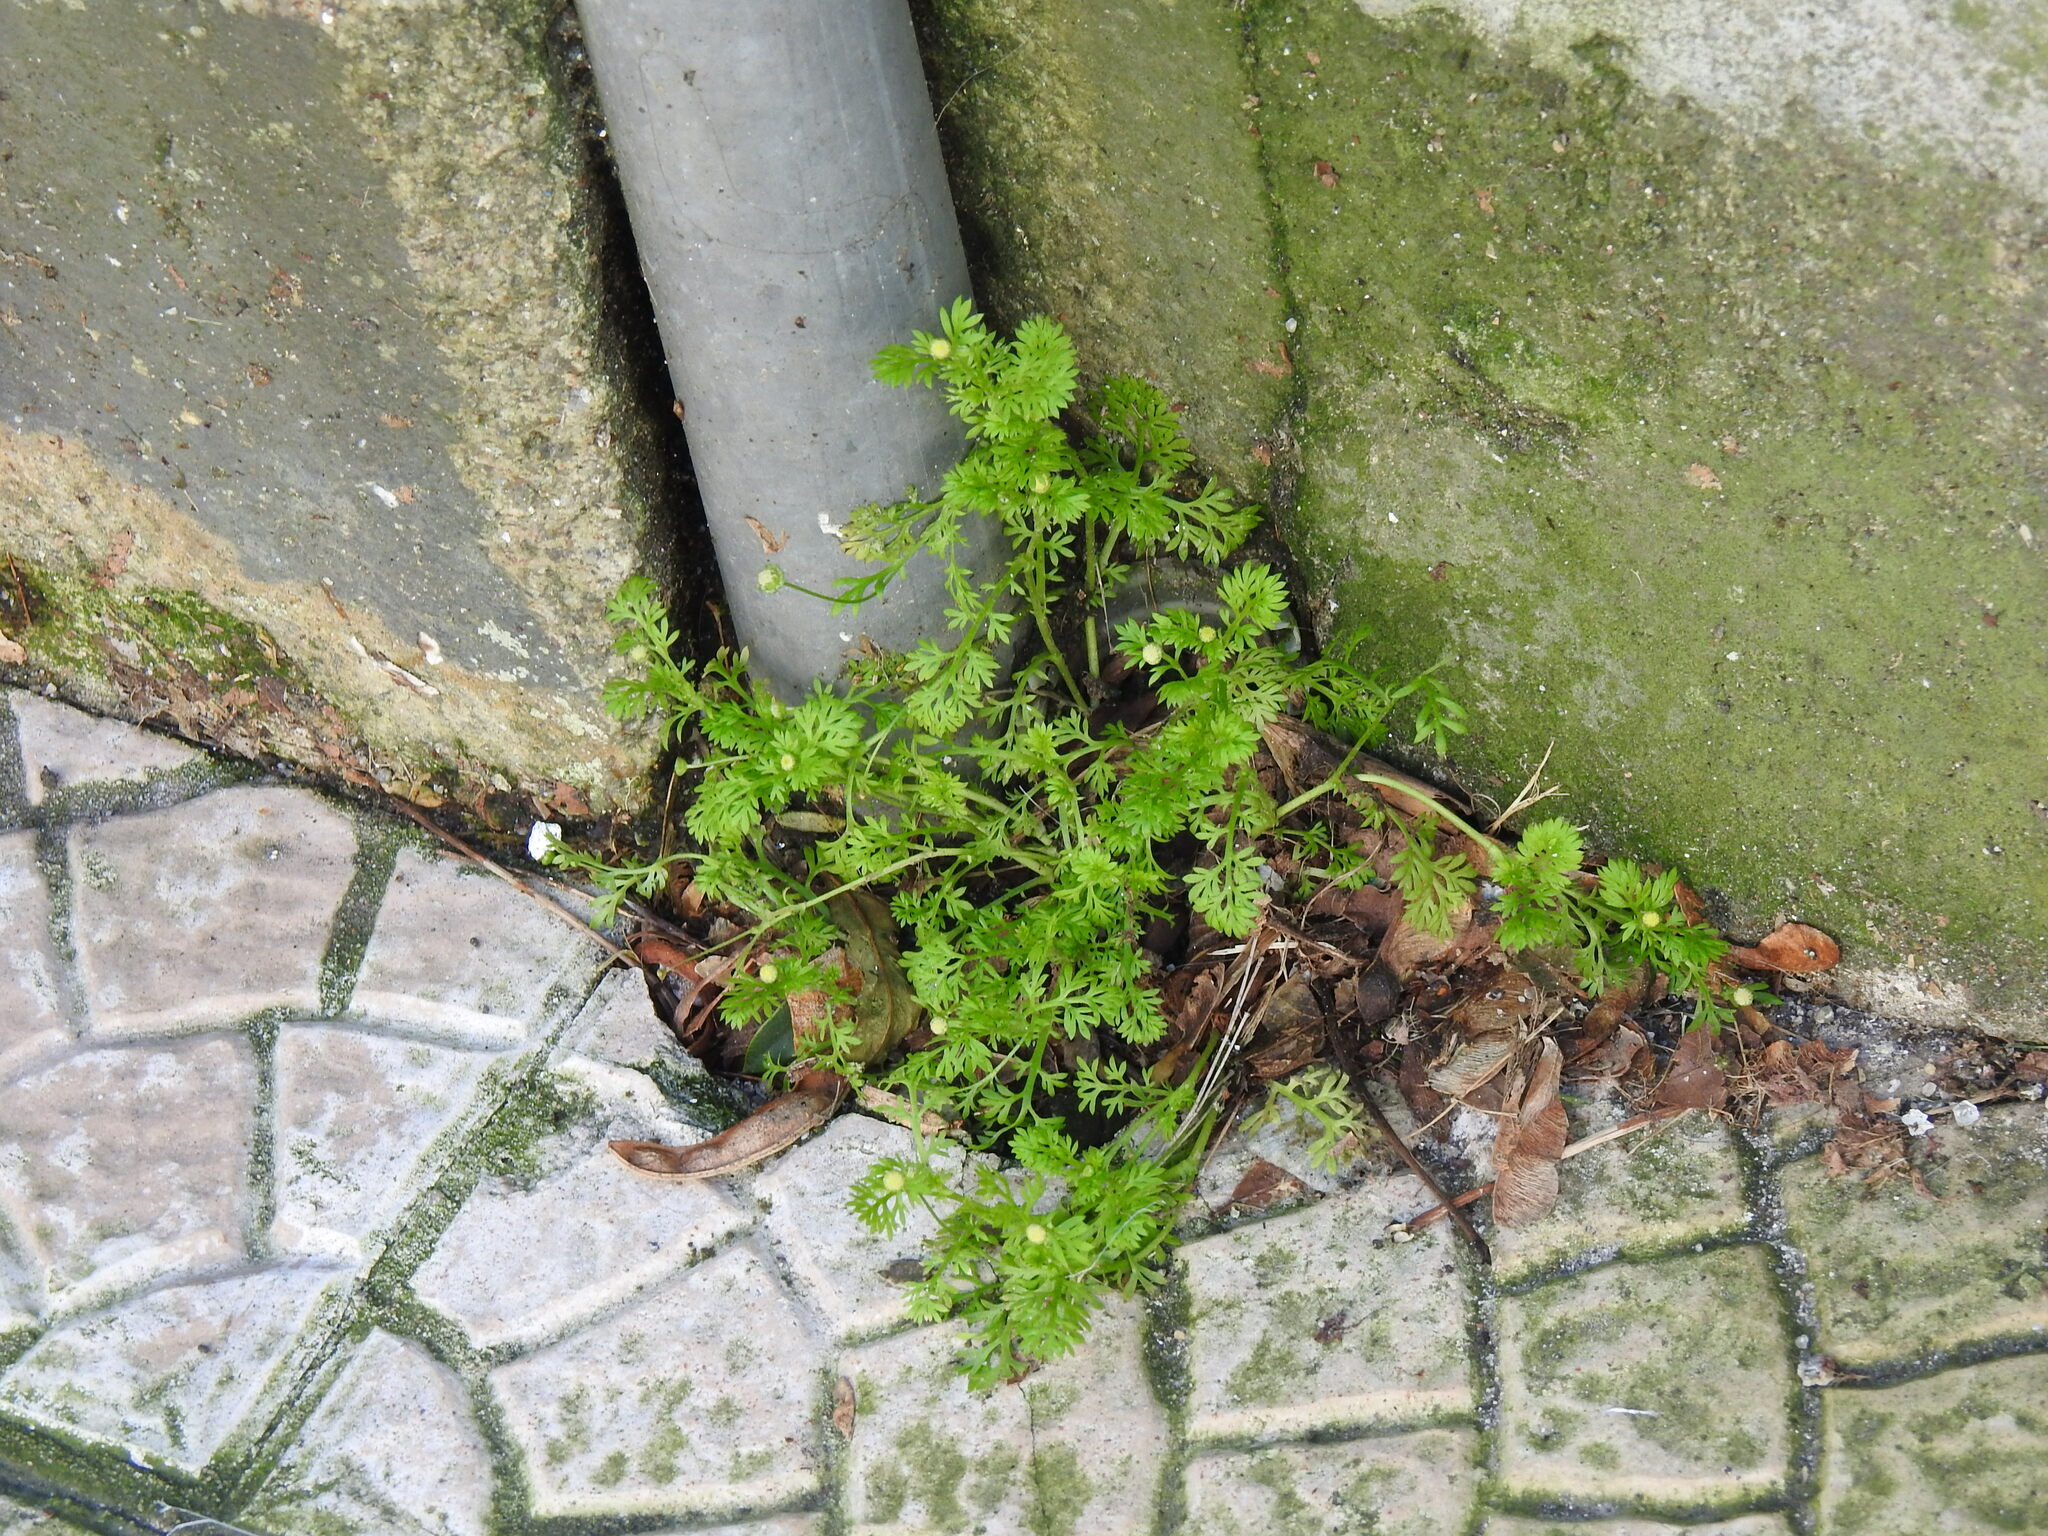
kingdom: Plantae
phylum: Tracheophyta
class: Magnoliopsida
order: Asterales
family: Asteraceae
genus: Cotula
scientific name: Cotula australis
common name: Australian waterbuttons
